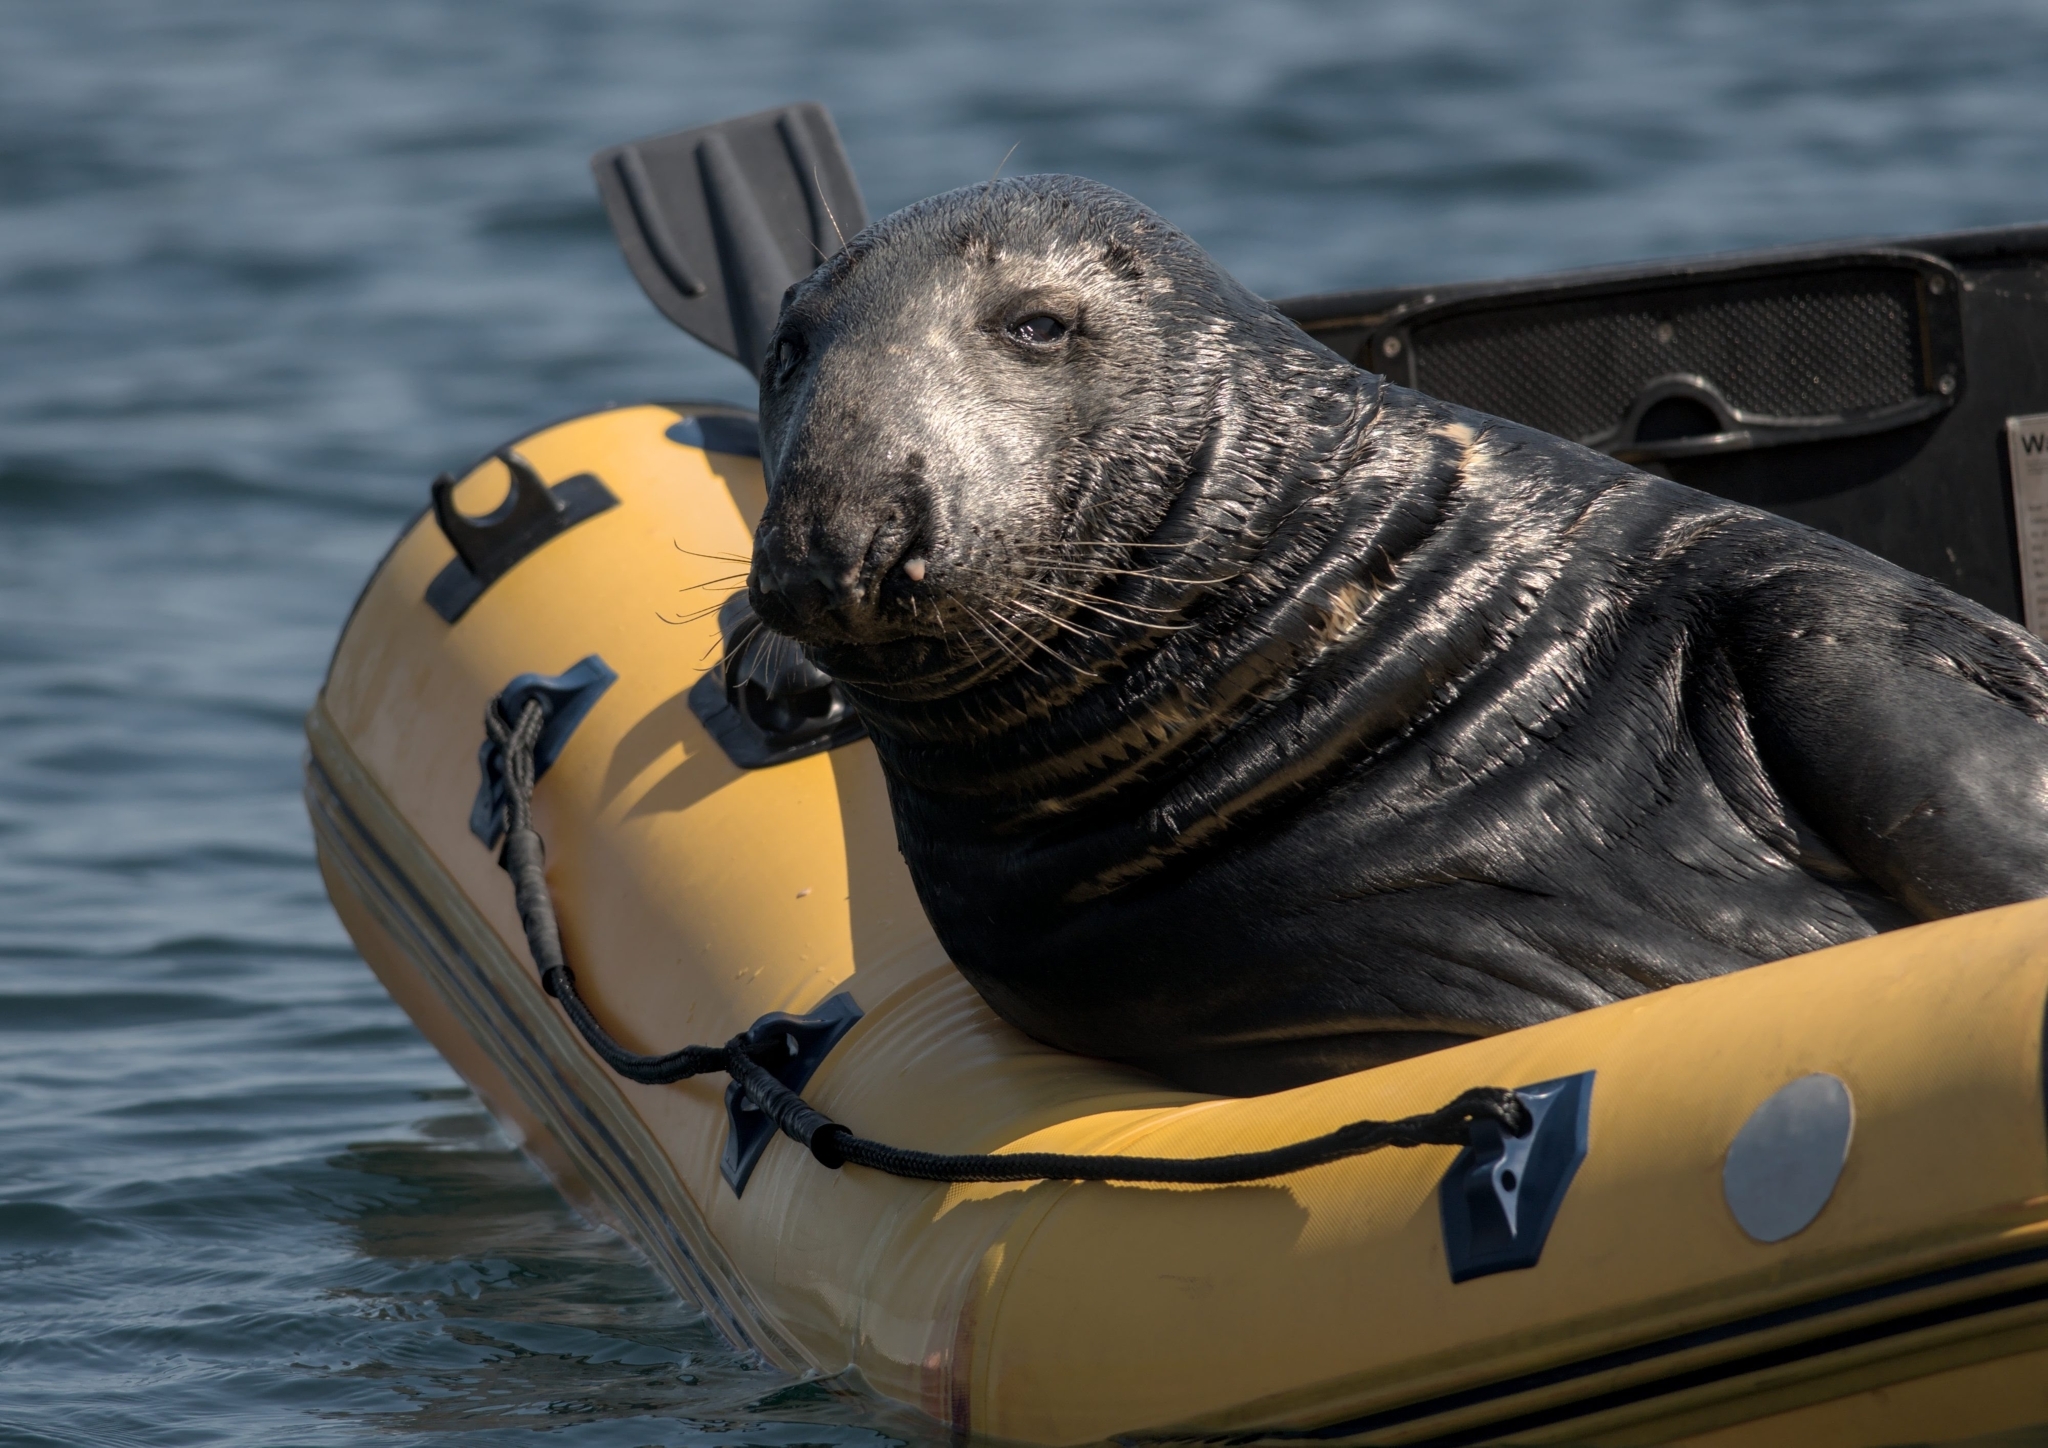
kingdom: Animalia
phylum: Chordata
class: Mammalia
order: Carnivora
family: Phocidae
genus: Halichoerus
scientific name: Halichoerus grypus
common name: Grey seal
